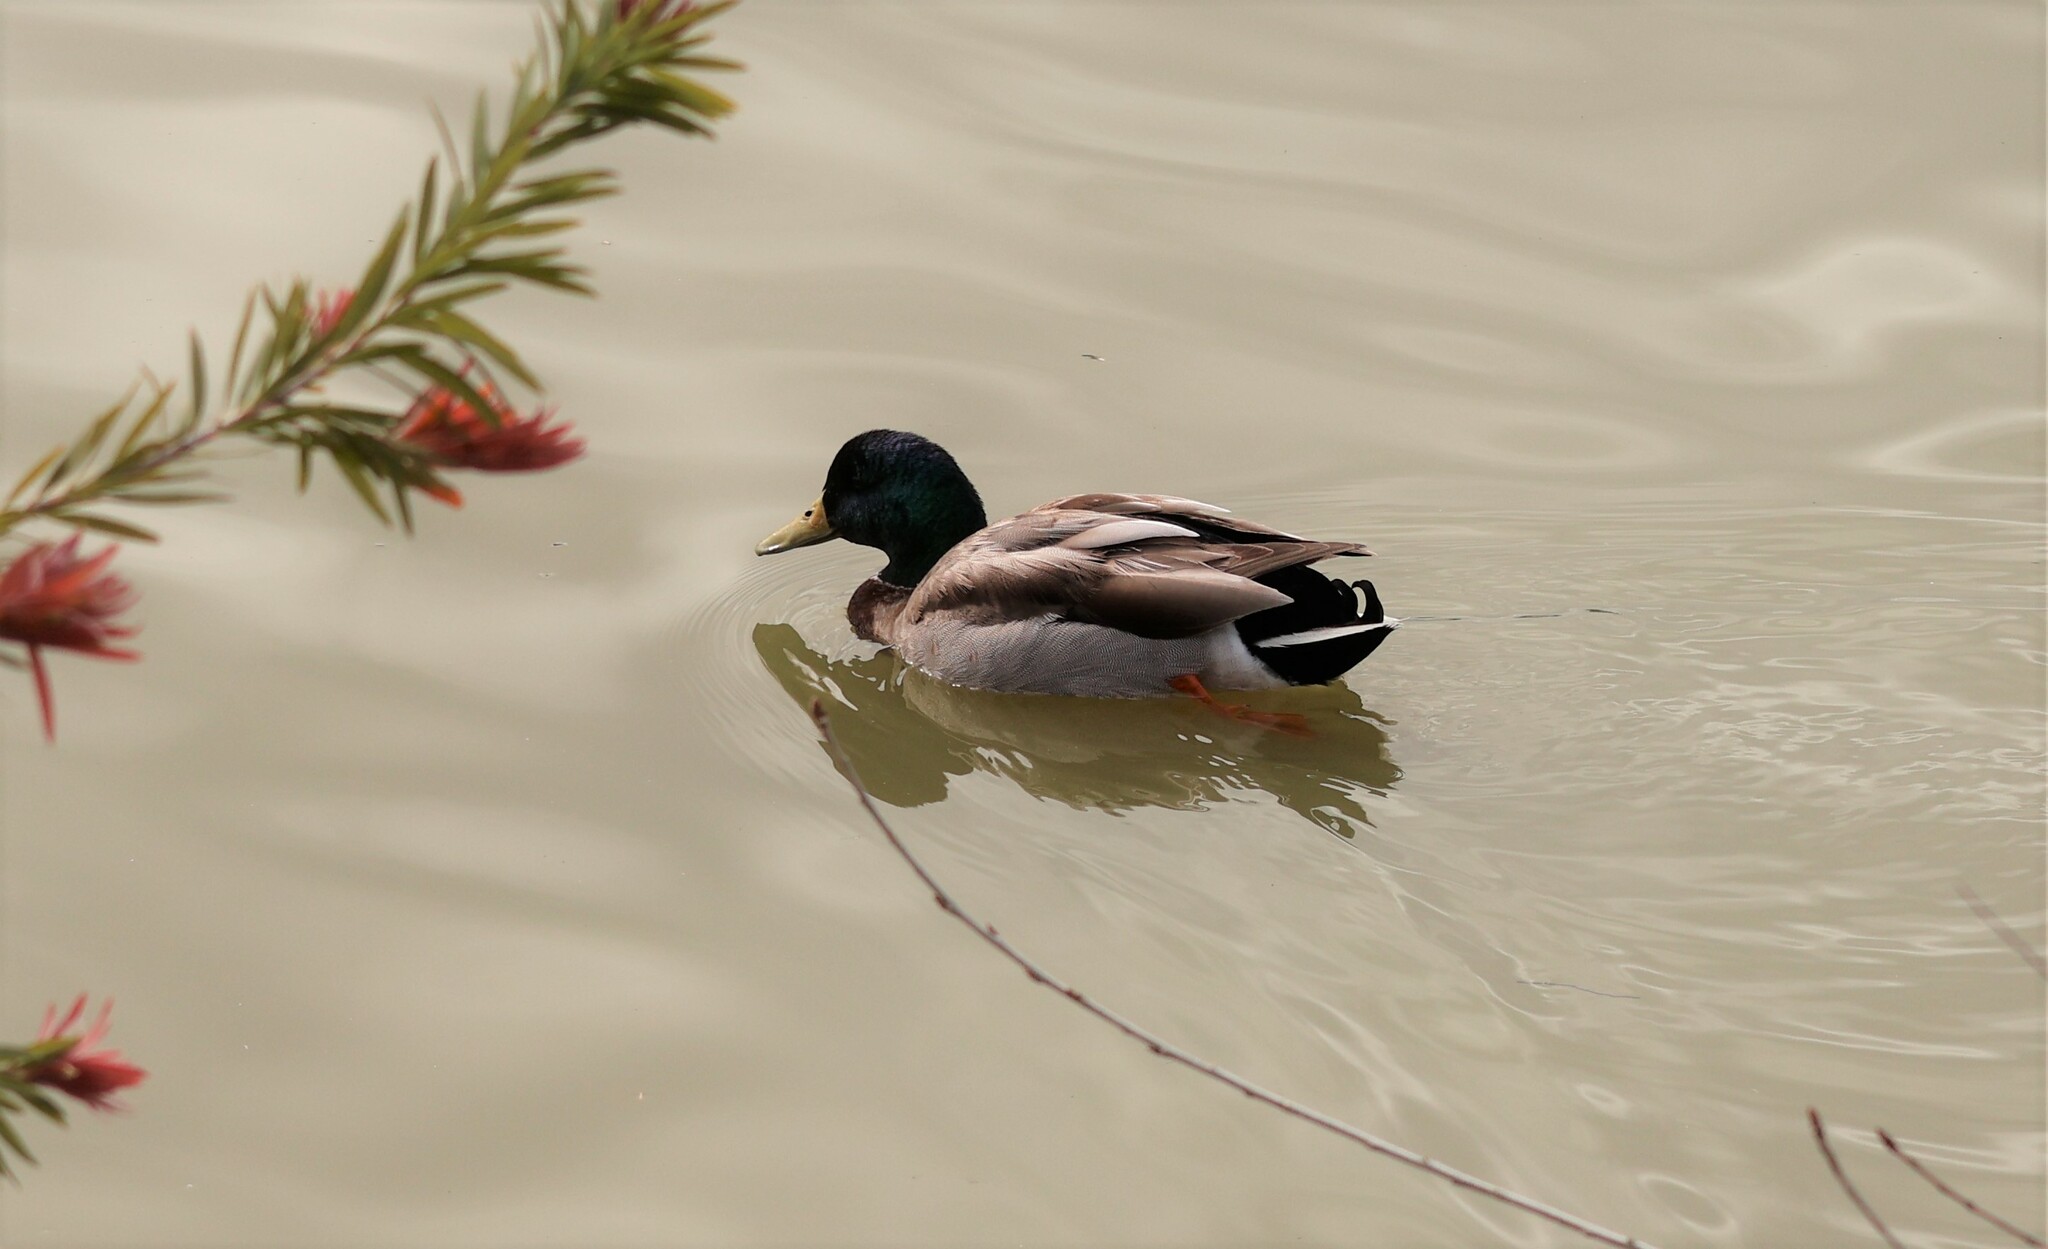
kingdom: Animalia
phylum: Chordata
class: Aves
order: Anseriformes
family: Anatidae
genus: Anas
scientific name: Anas platyrhynchos
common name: Mallard
